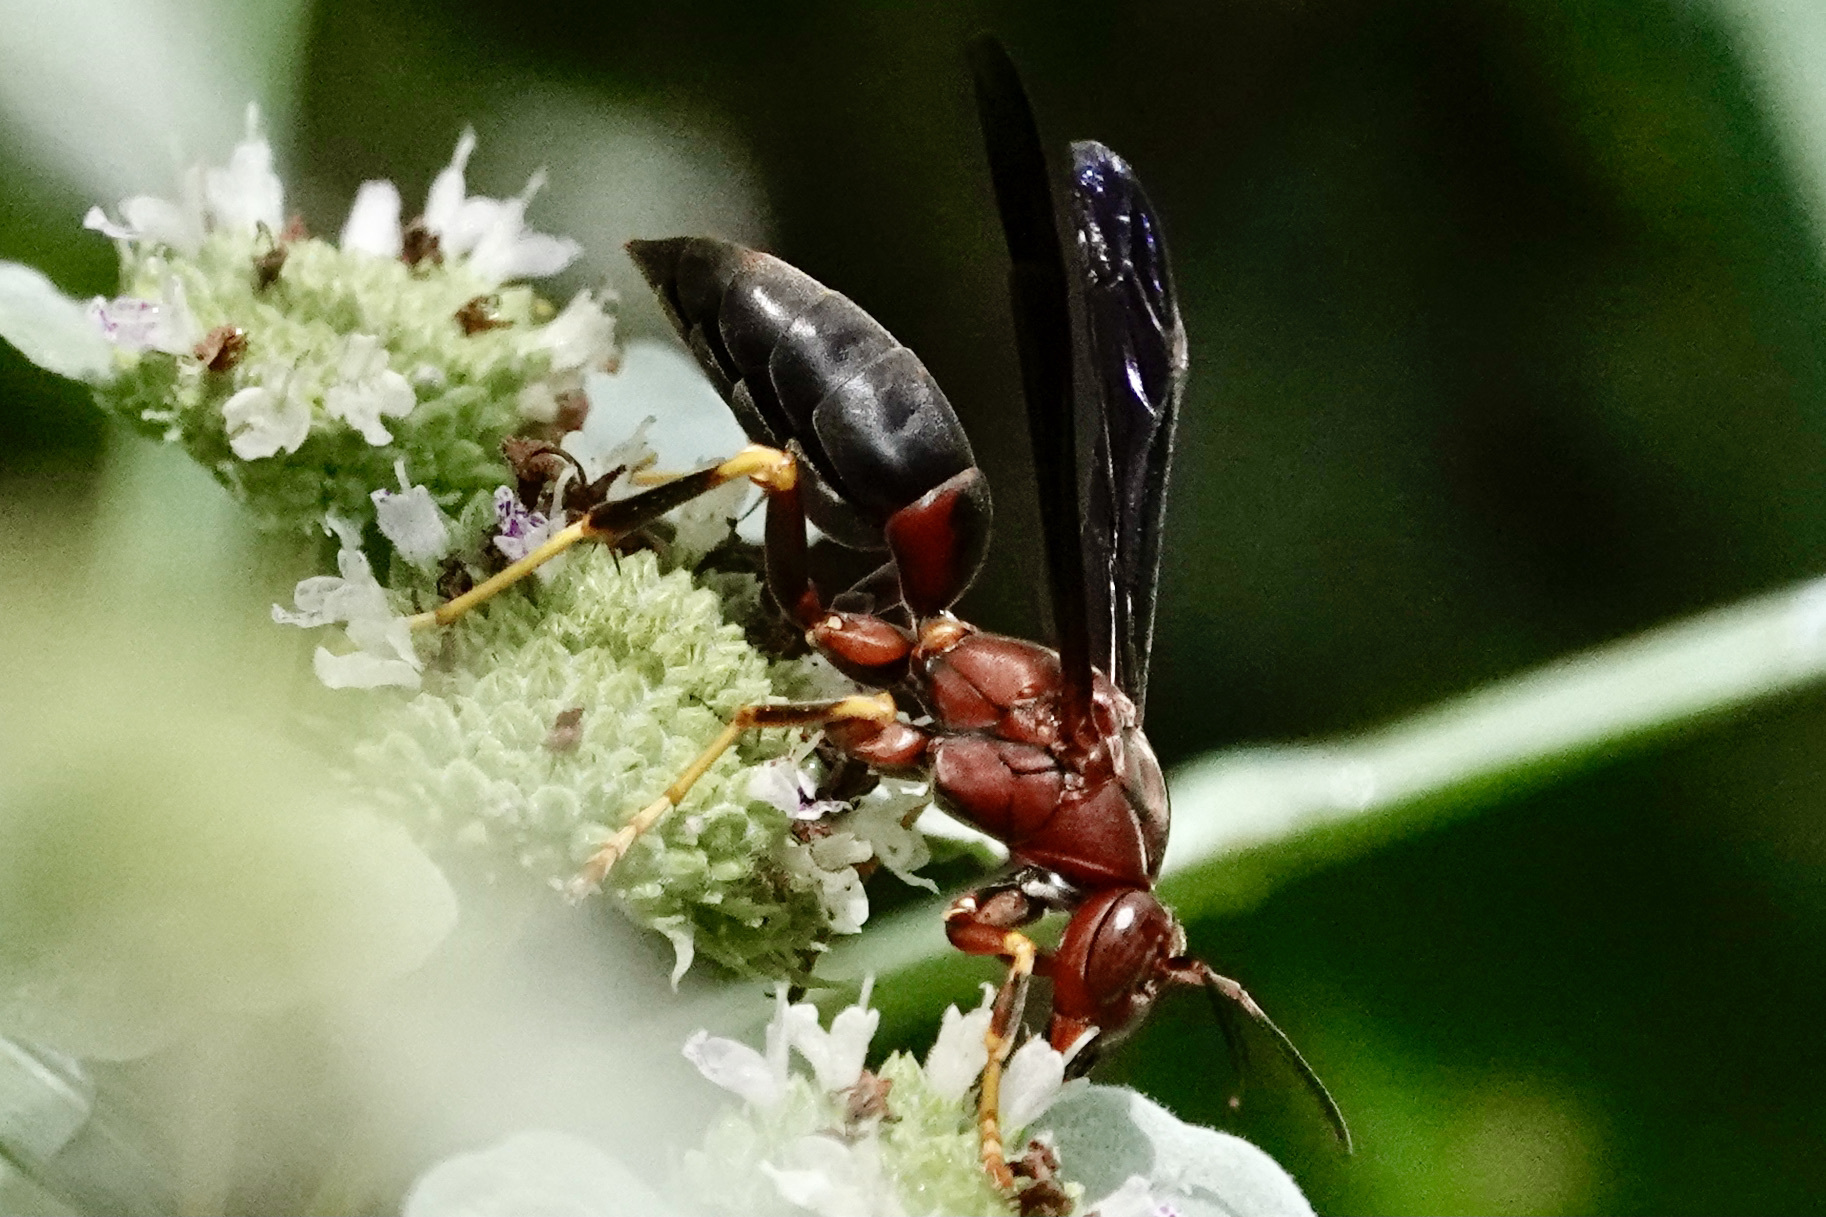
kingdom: Animalia
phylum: Arthropoda
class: Insecta
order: Hymenoptera
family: Eumenidae
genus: Polistes
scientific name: Polistes metricus
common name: Metric paper wasp
